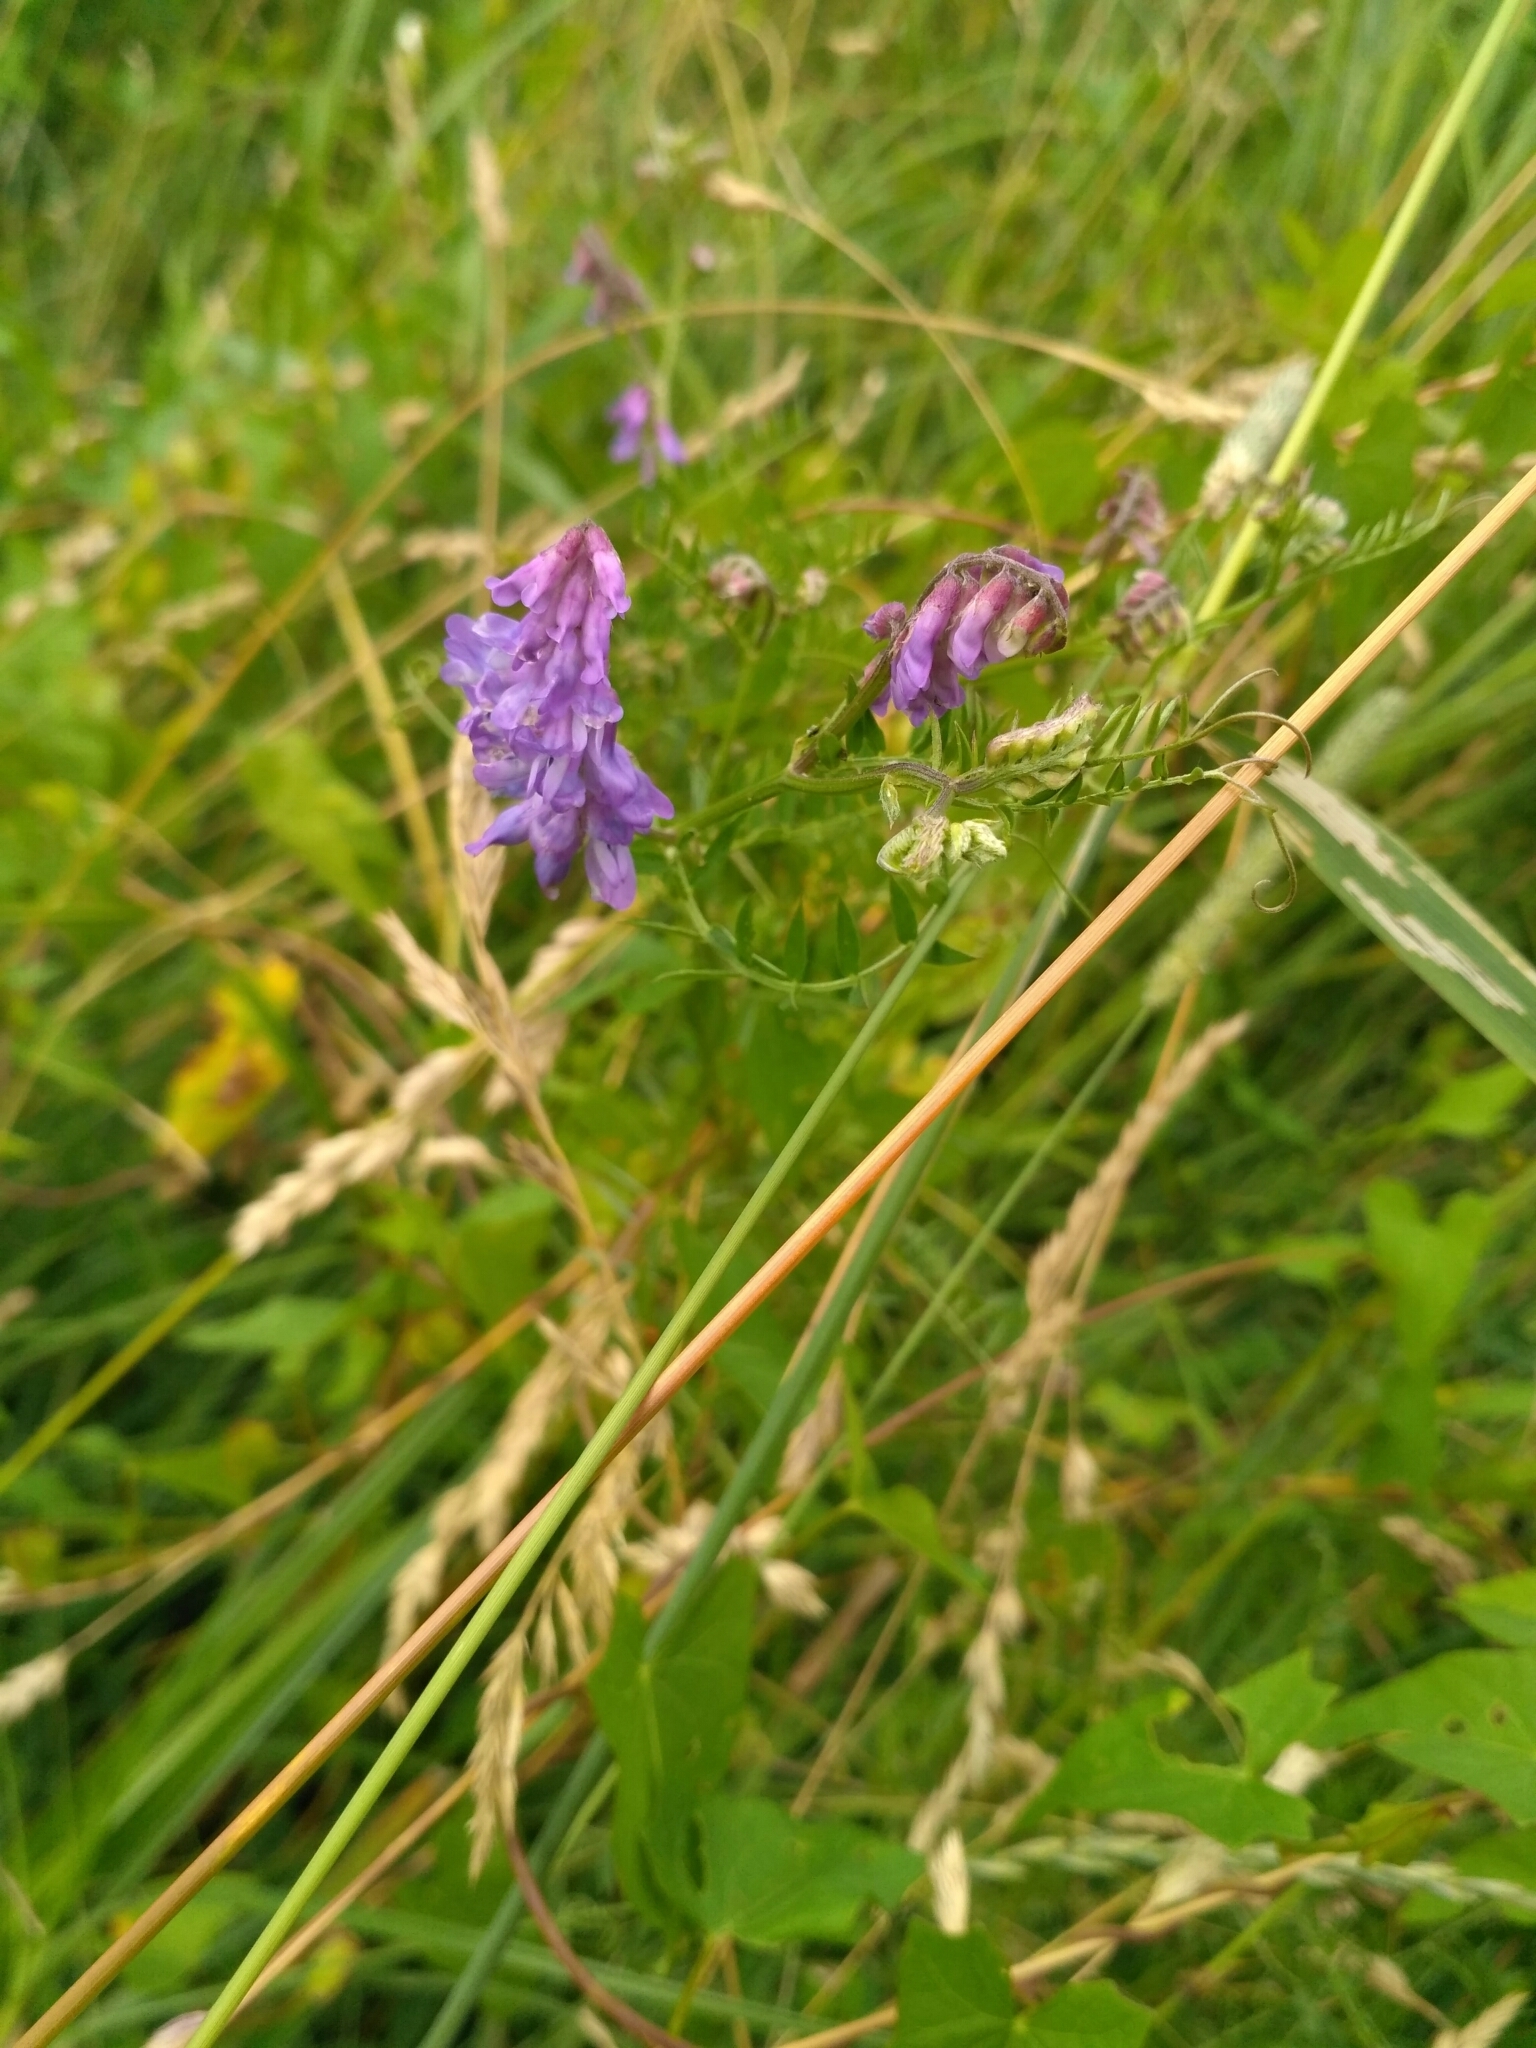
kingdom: Plantae
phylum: Tracheophyta
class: Magnoliopsida
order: Fabales
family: Fabaceae
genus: Vicia
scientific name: Vicia cracca
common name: Bird vetch
